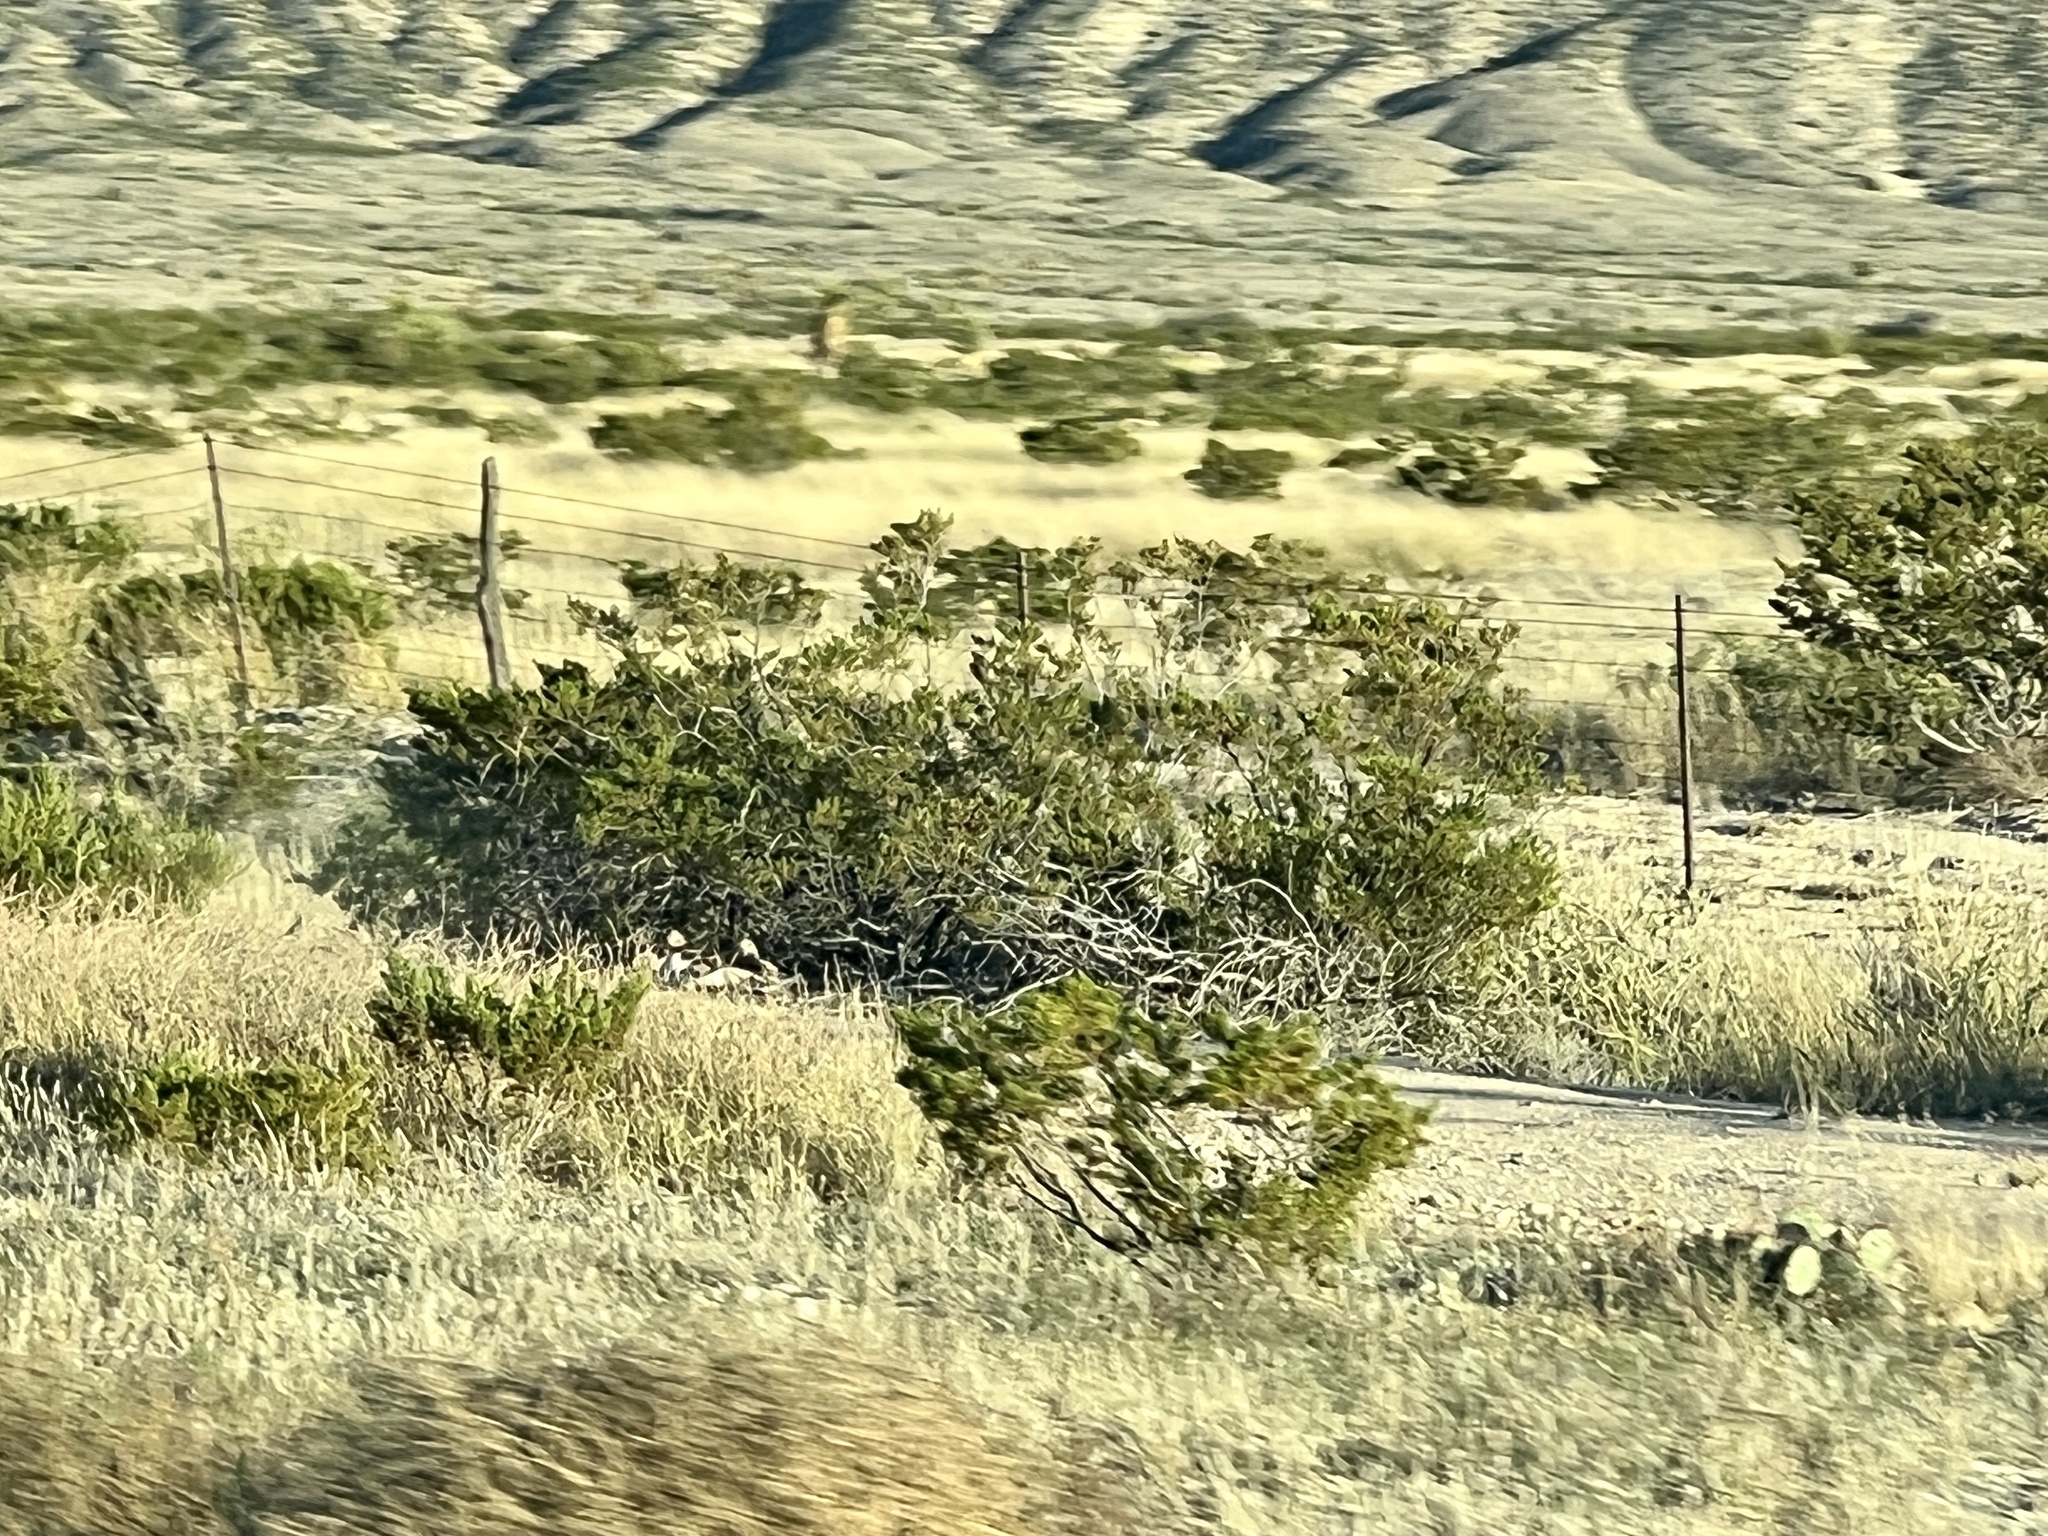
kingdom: Plantae
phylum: Tracheophyta
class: Magnoliopsida
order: Zygophyllales
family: Zygophyllaceae
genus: Larrea
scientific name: Larrea tridentata
